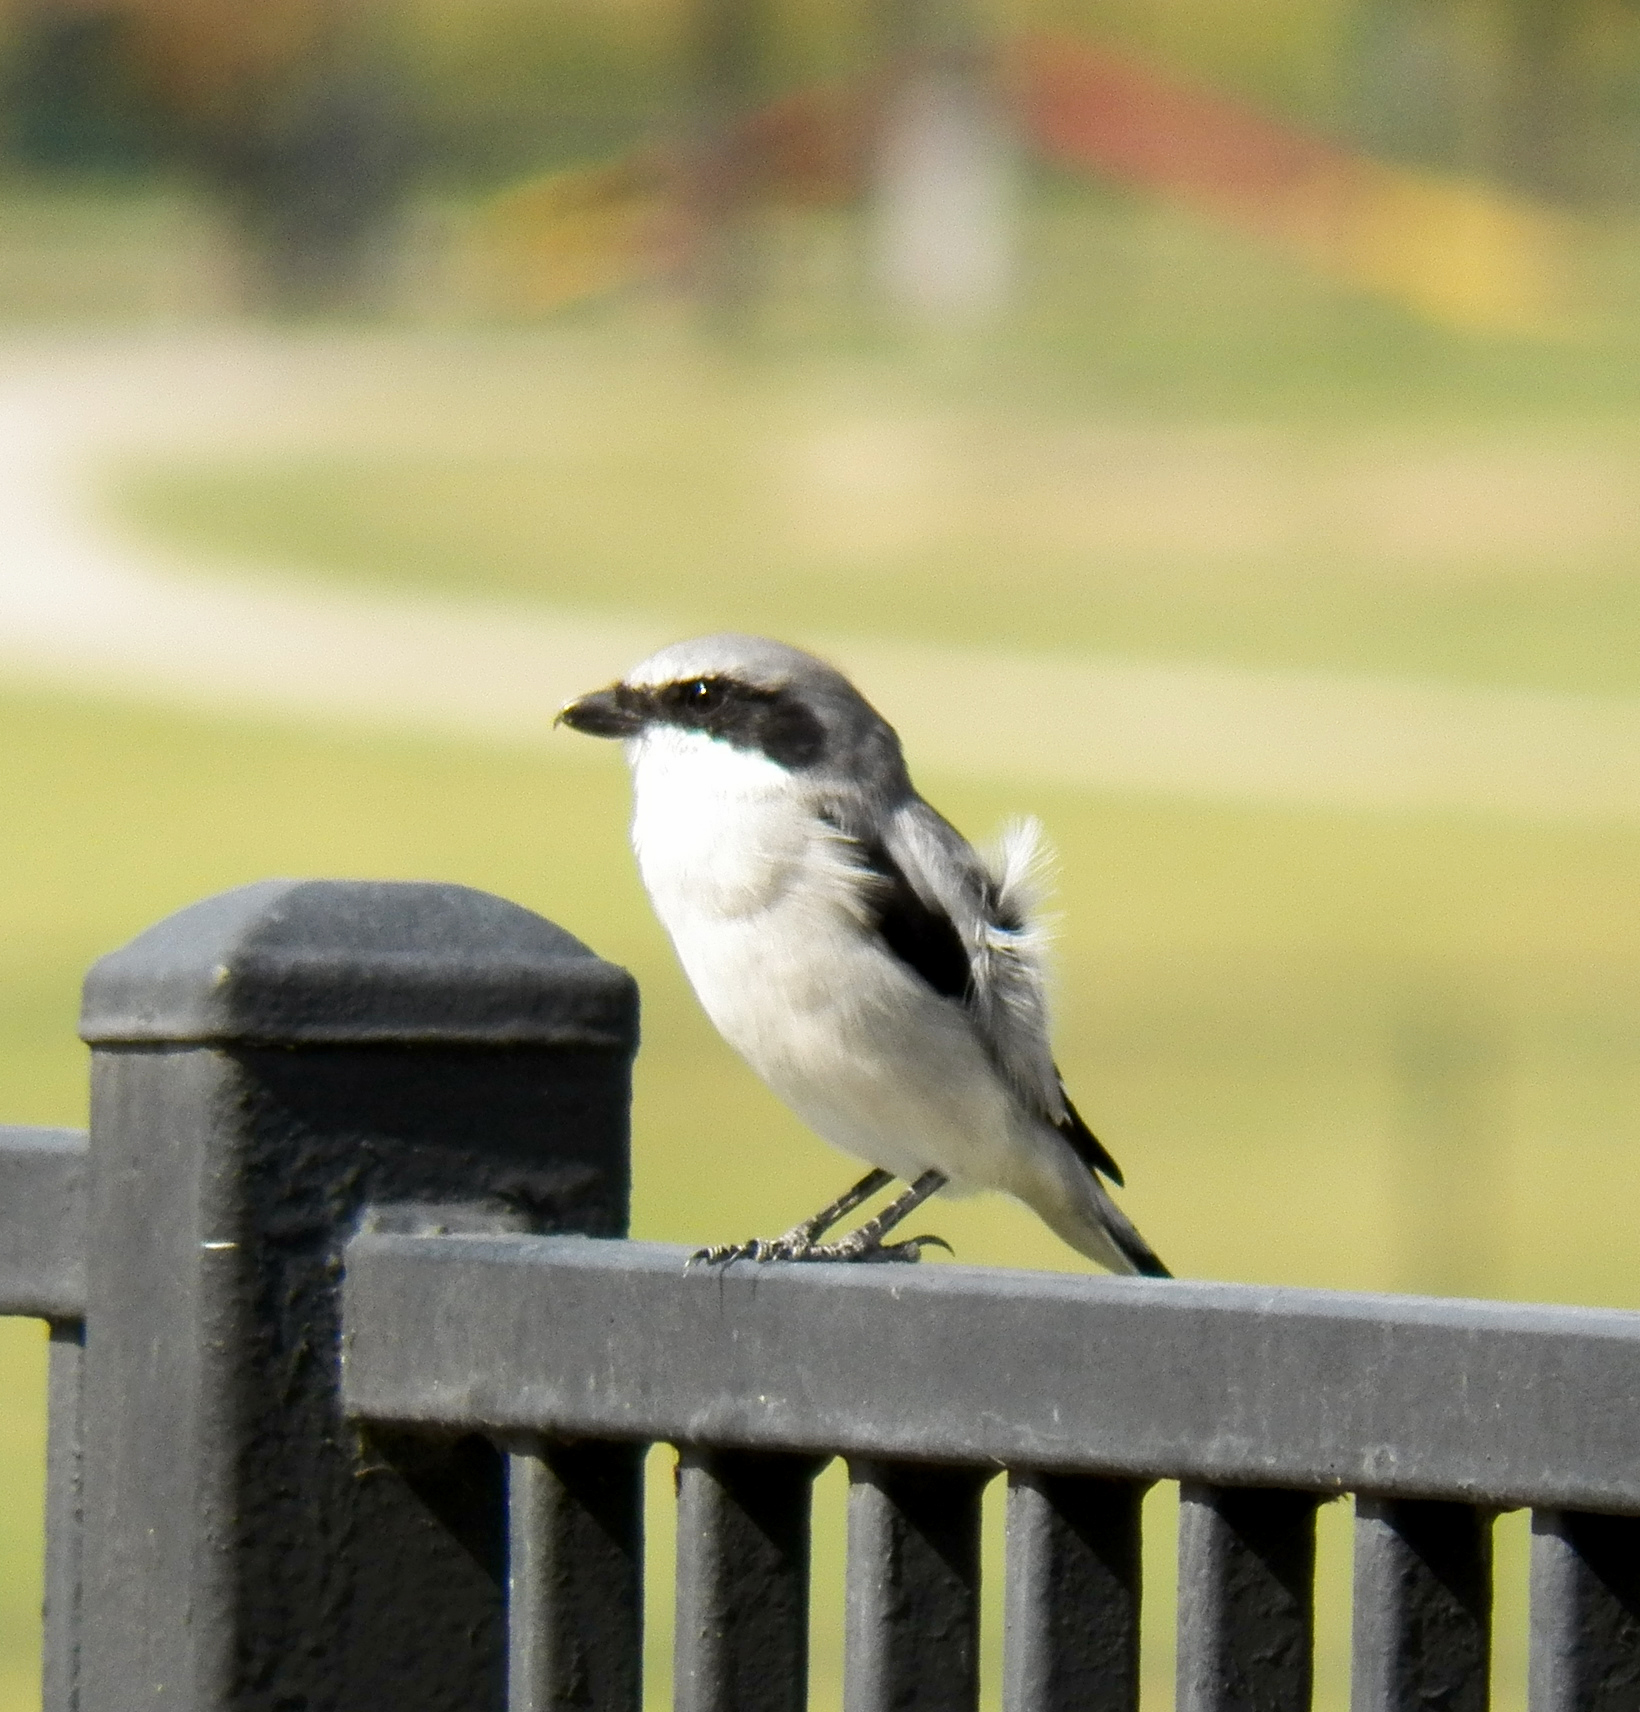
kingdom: Animalia
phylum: Chordata
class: Aves
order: Passeriformes
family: Laniidae
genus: Lanius
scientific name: Lanius ludovicianus
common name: Loggerhead shrike
